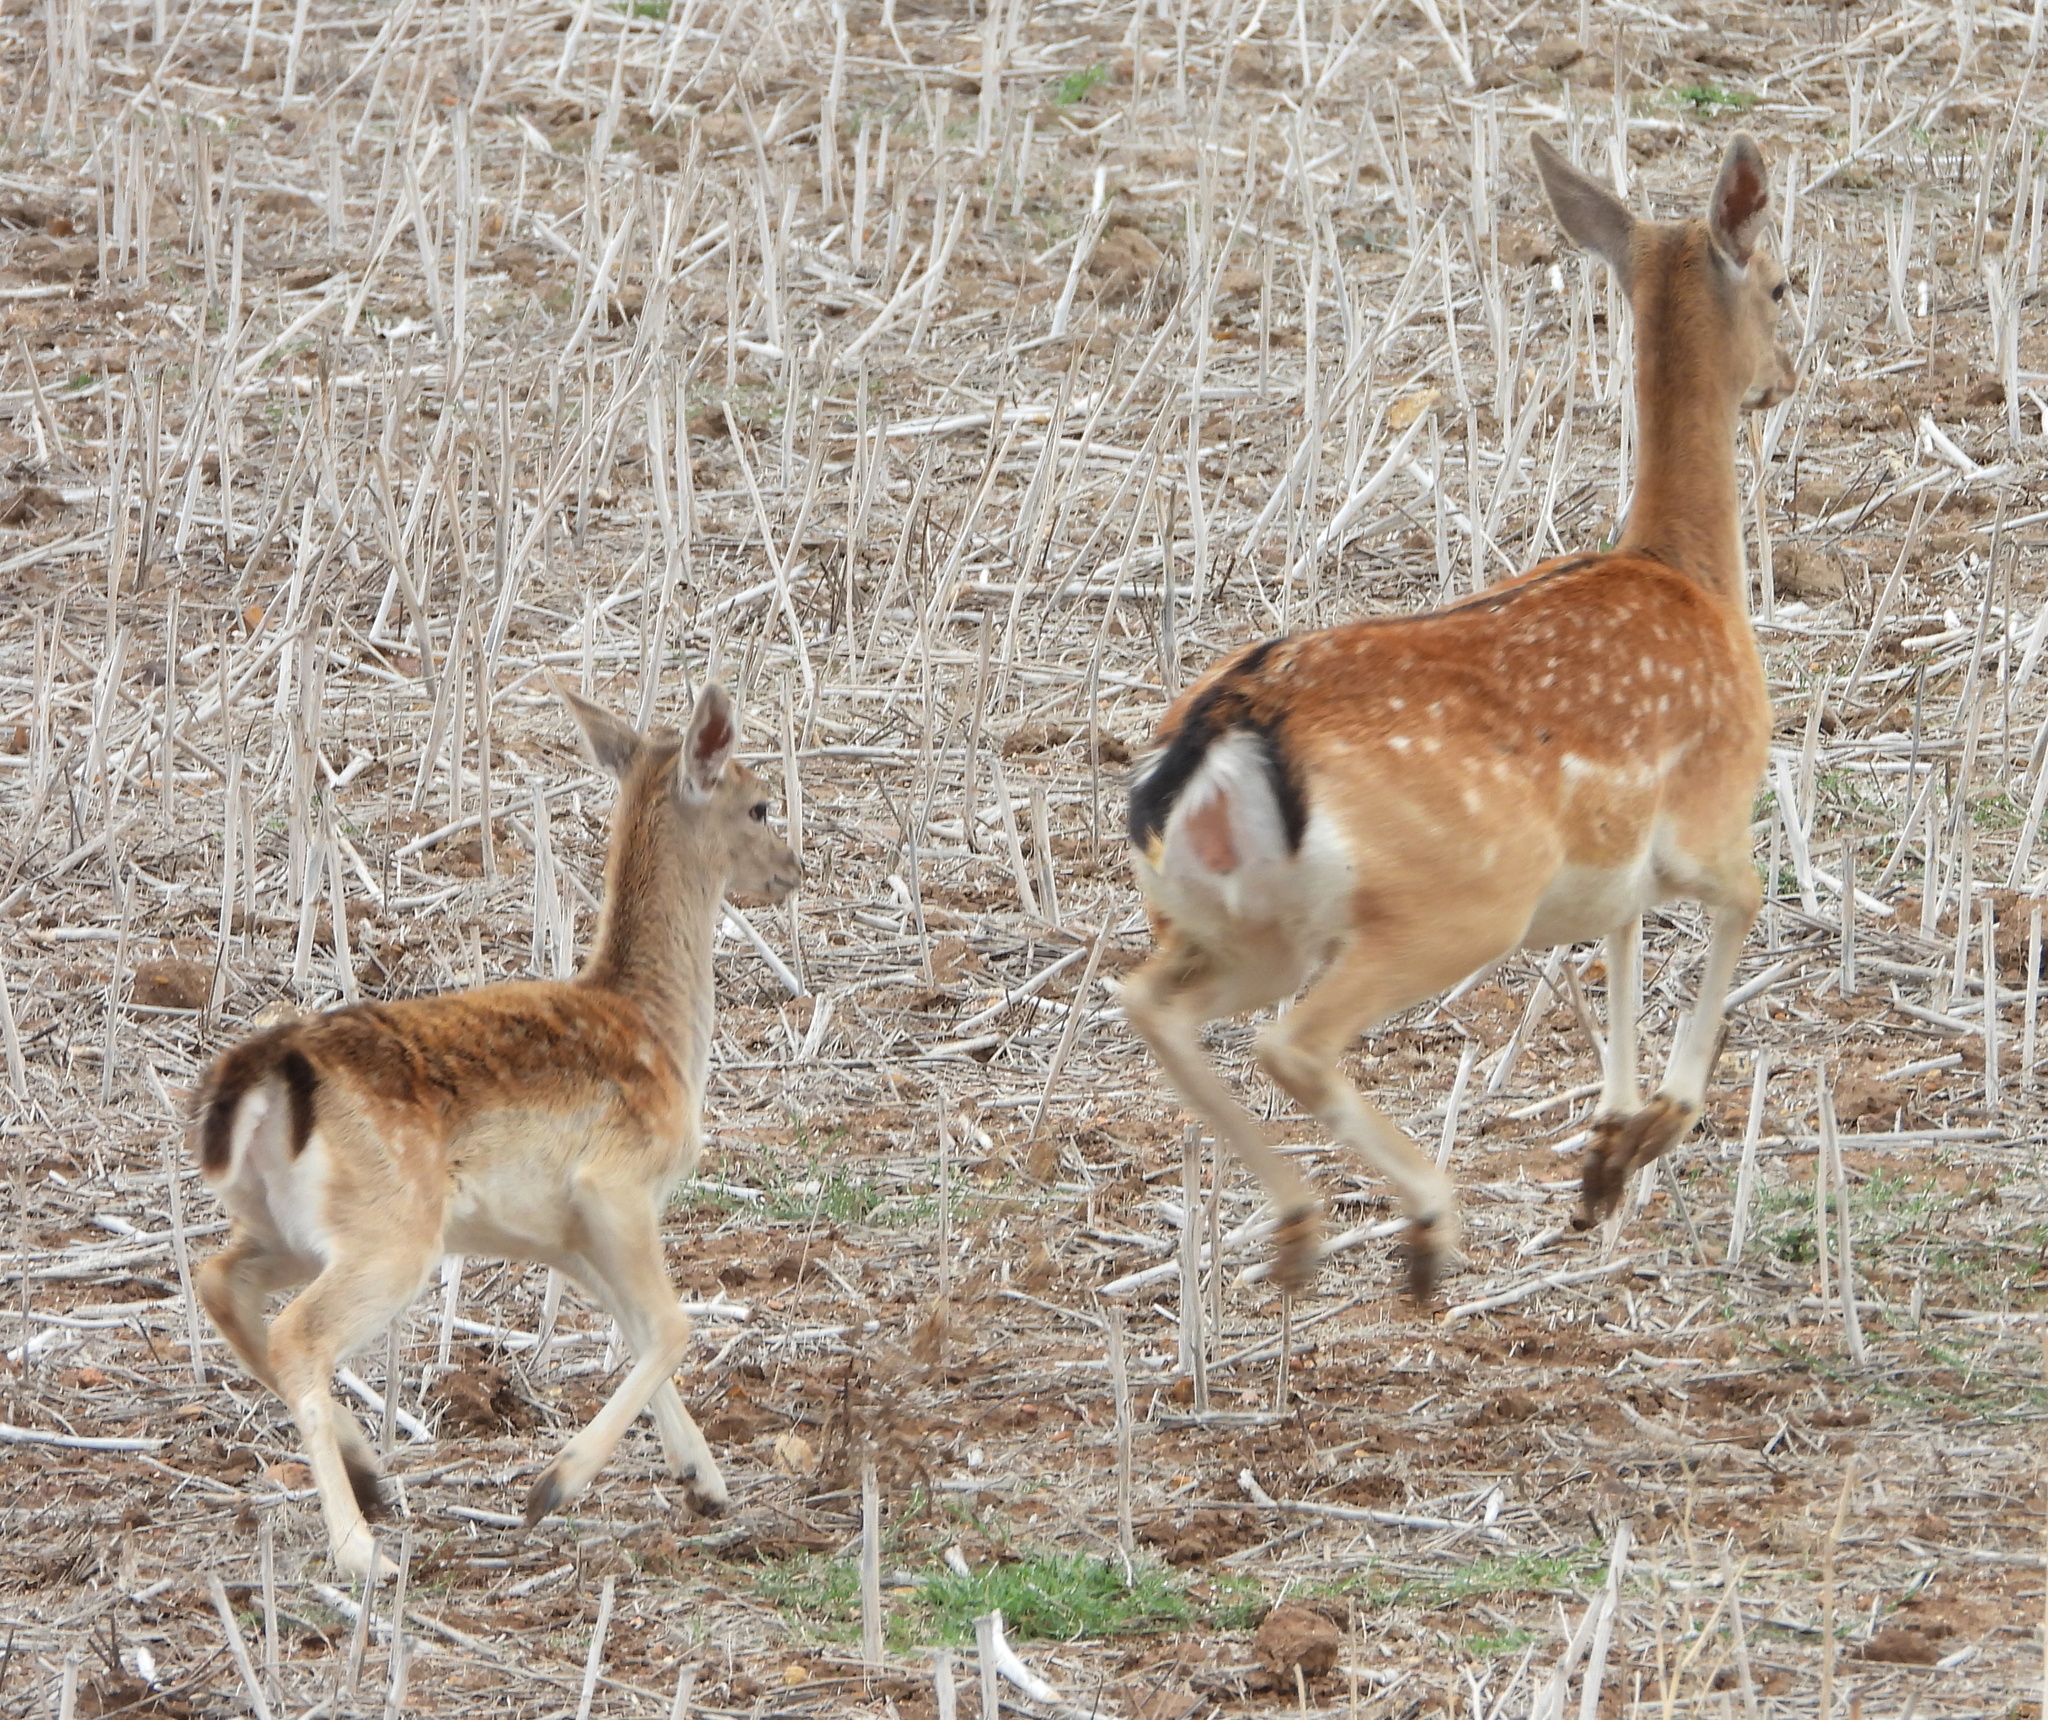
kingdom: Animalia
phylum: Chordata
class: Mammalia
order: Artiodactyla
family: Cervidae
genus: Dama
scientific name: Dama dama
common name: Fallow deer
